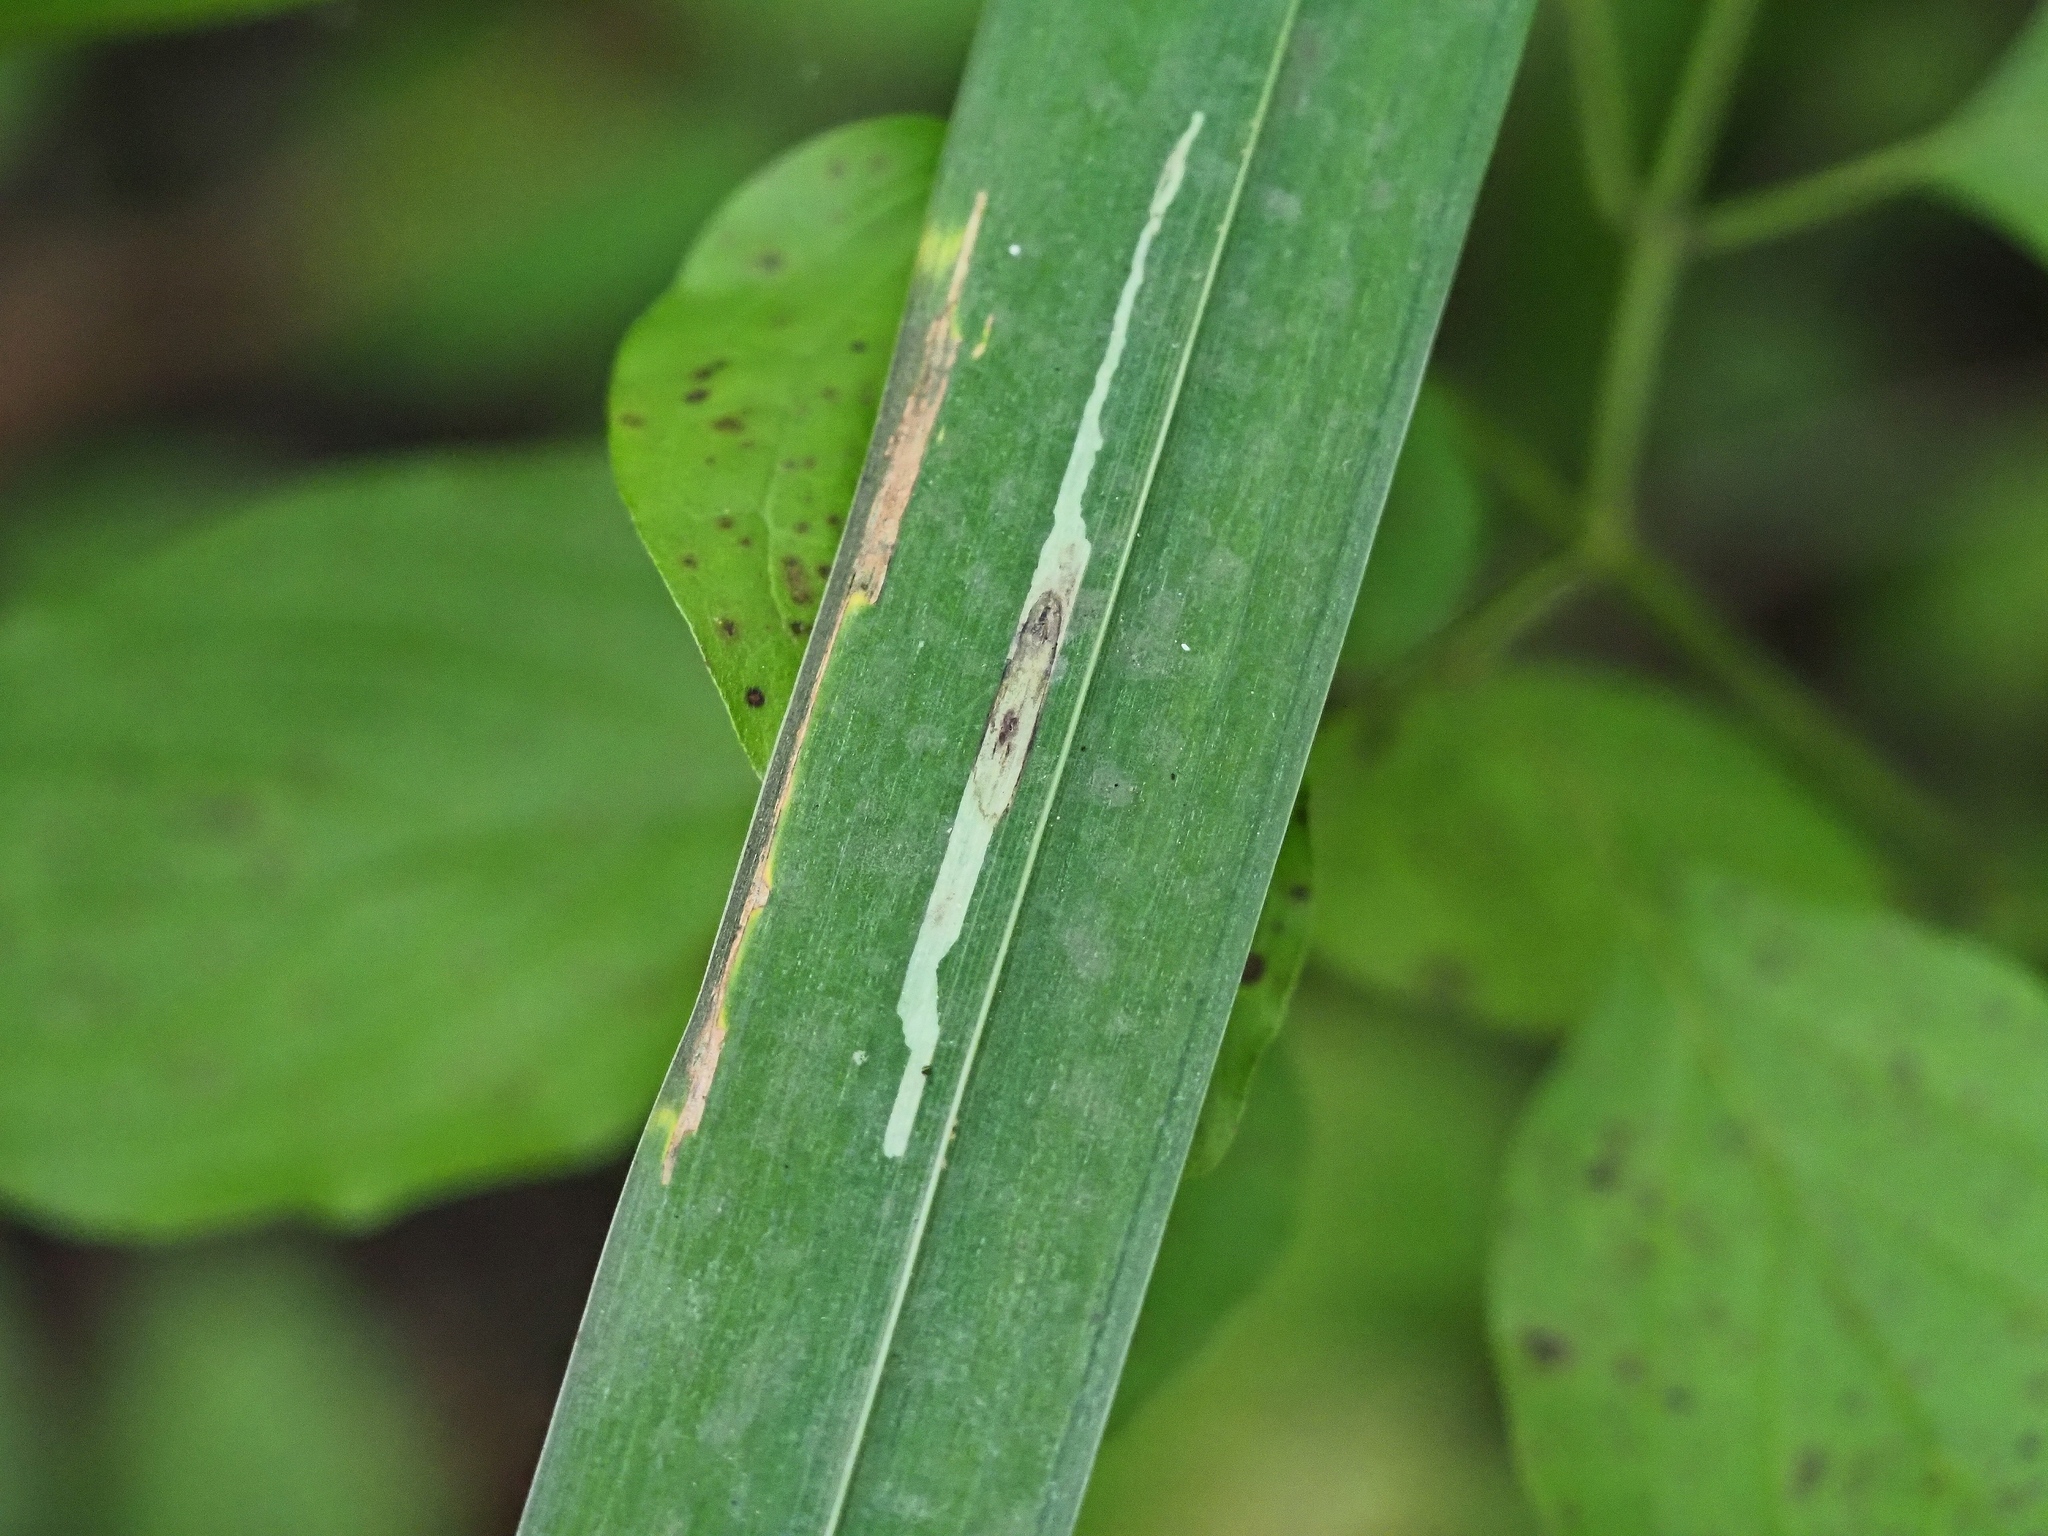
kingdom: Animalia
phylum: Arthropoda
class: Insecta
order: Diptera
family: Agromyzidae
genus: Cerodontha
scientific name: Cerodontha ircos
